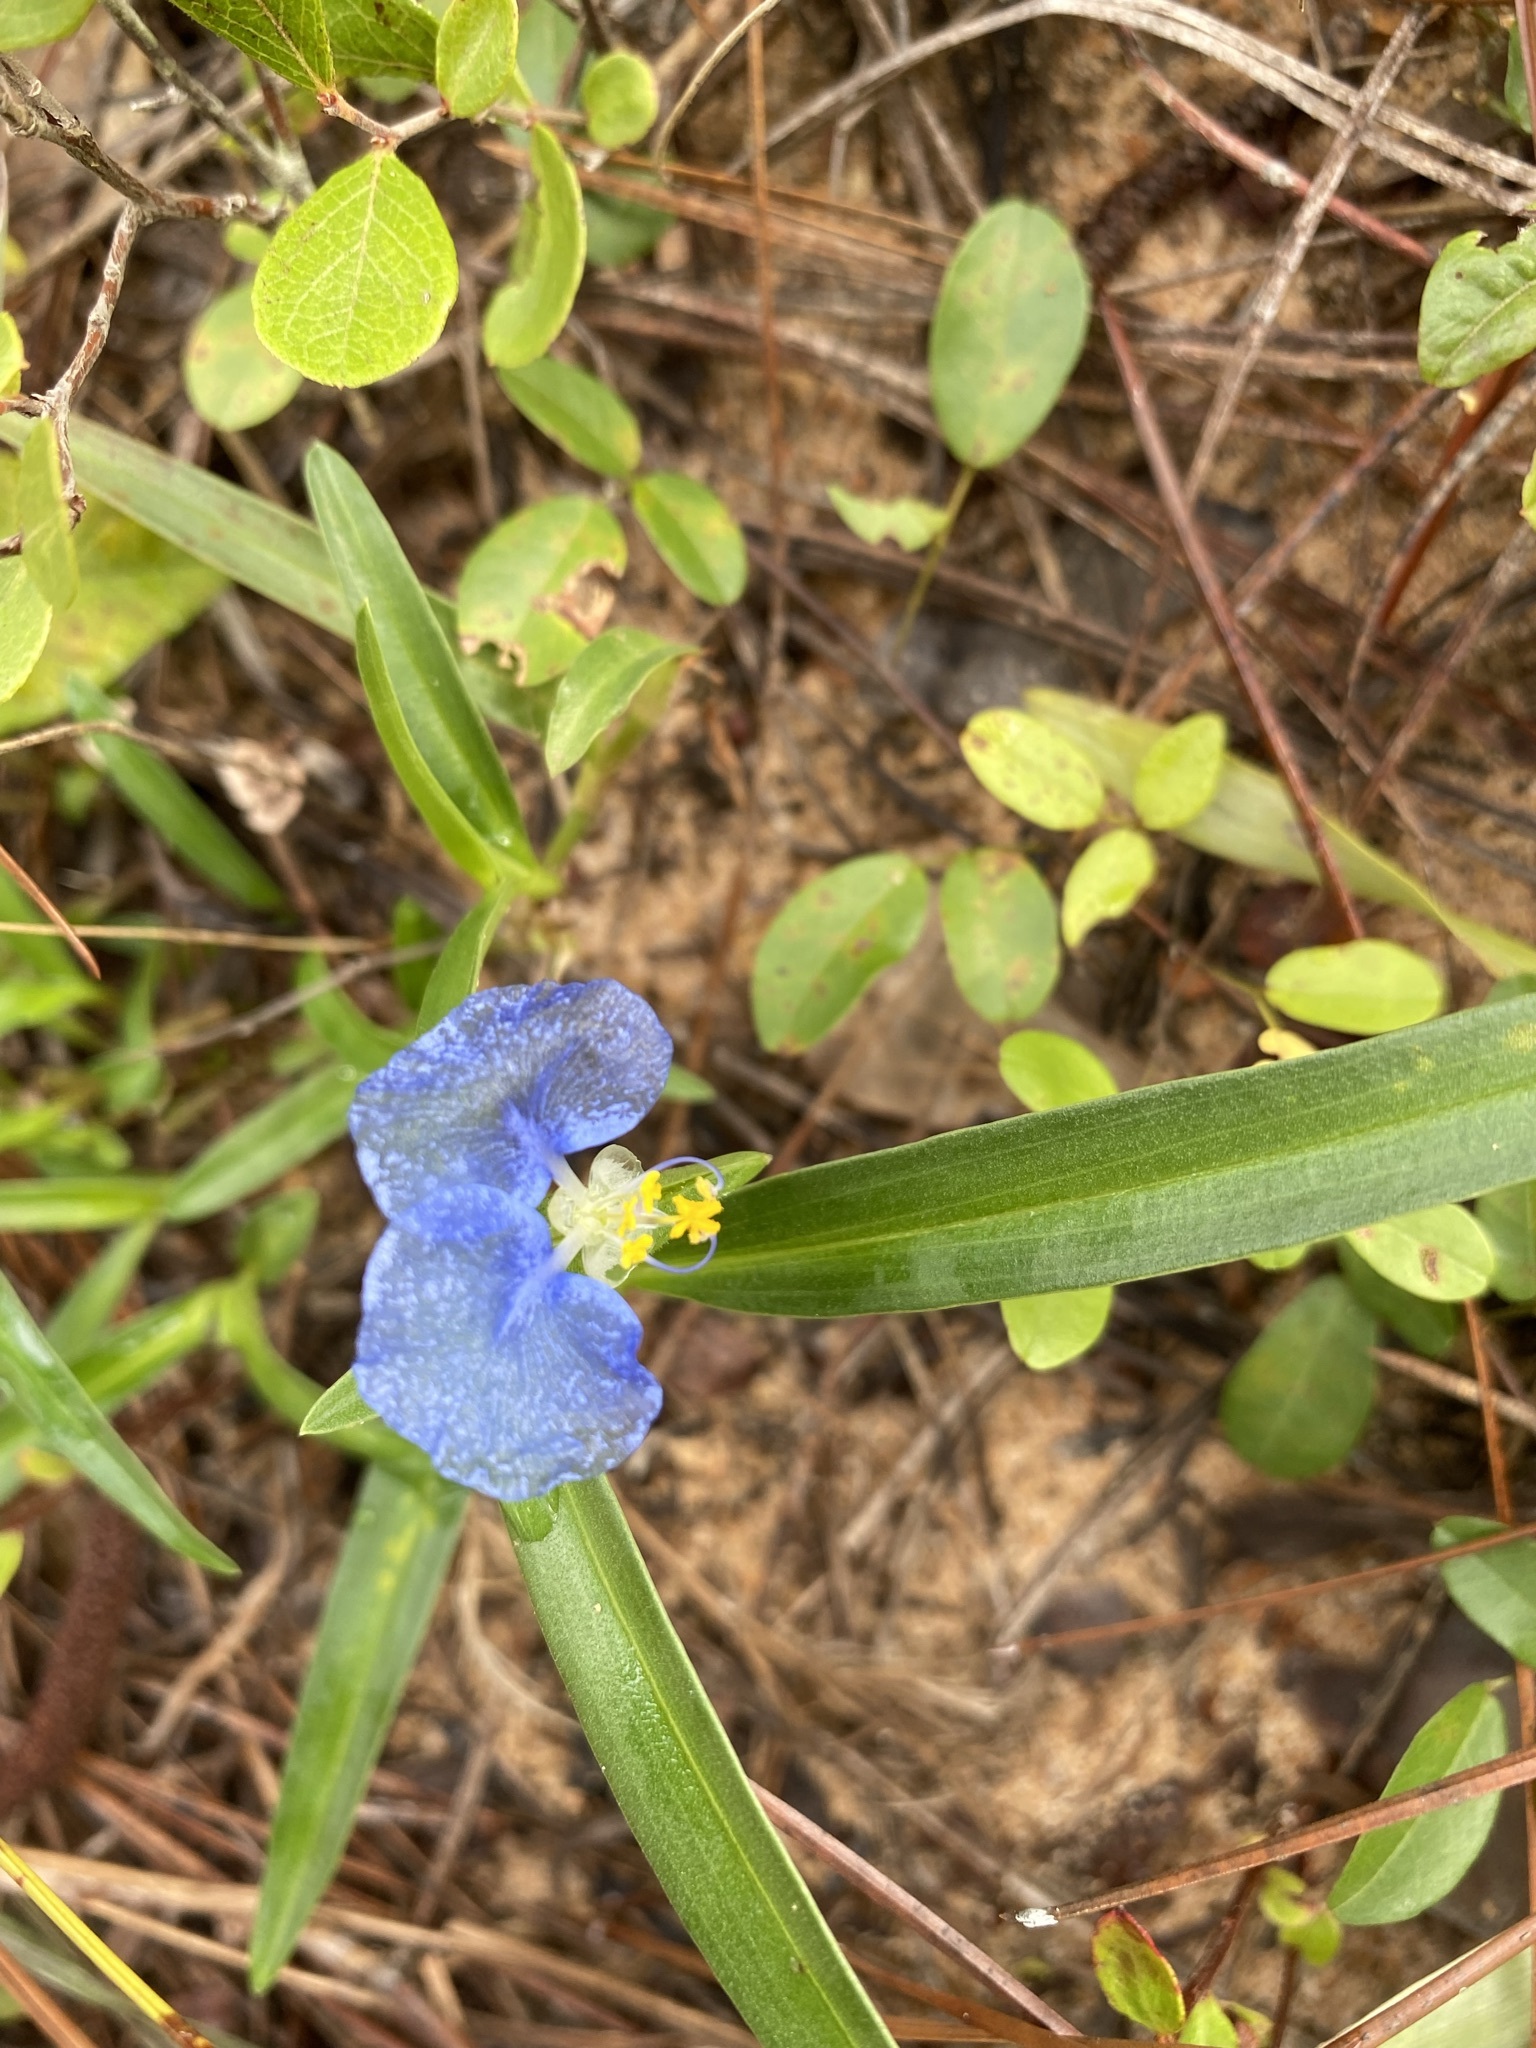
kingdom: Plantae
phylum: Tracheophyta
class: Liliopsida
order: Commelinales
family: Commelinaceae
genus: Commelina
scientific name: Commelina erecta
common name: Blousel blommetjie
